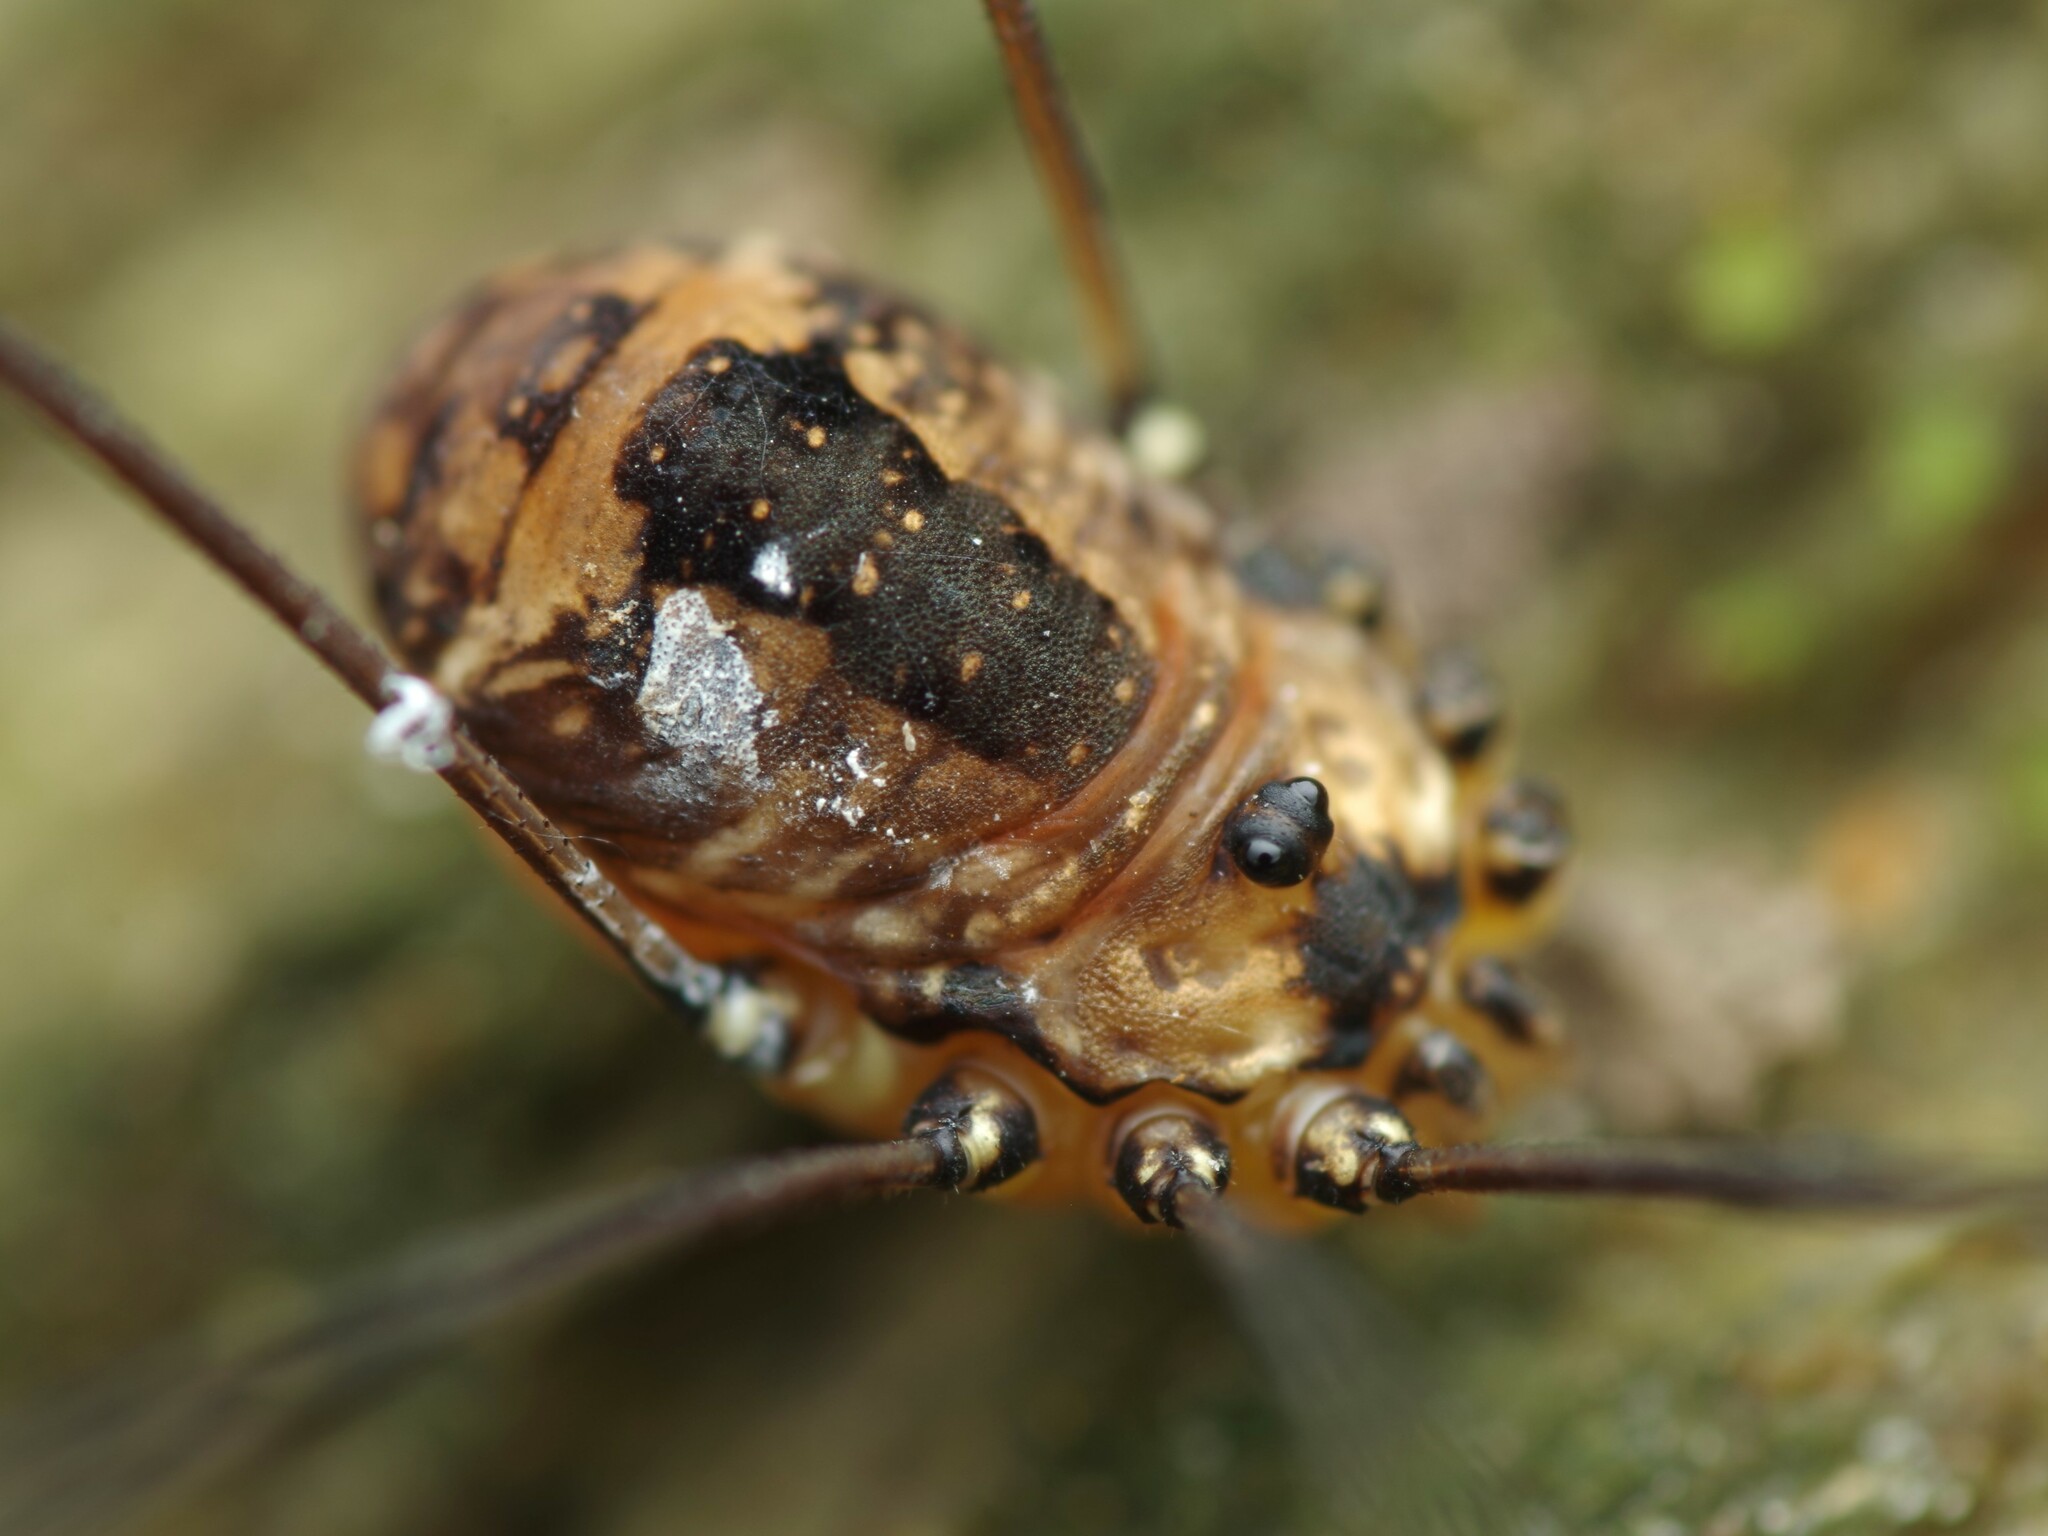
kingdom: Animalia
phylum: Arthropoda
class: Arachnida
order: Opiliones
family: Sclerosomatidae
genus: Leiobunum
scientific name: Leiobunum rotundum
